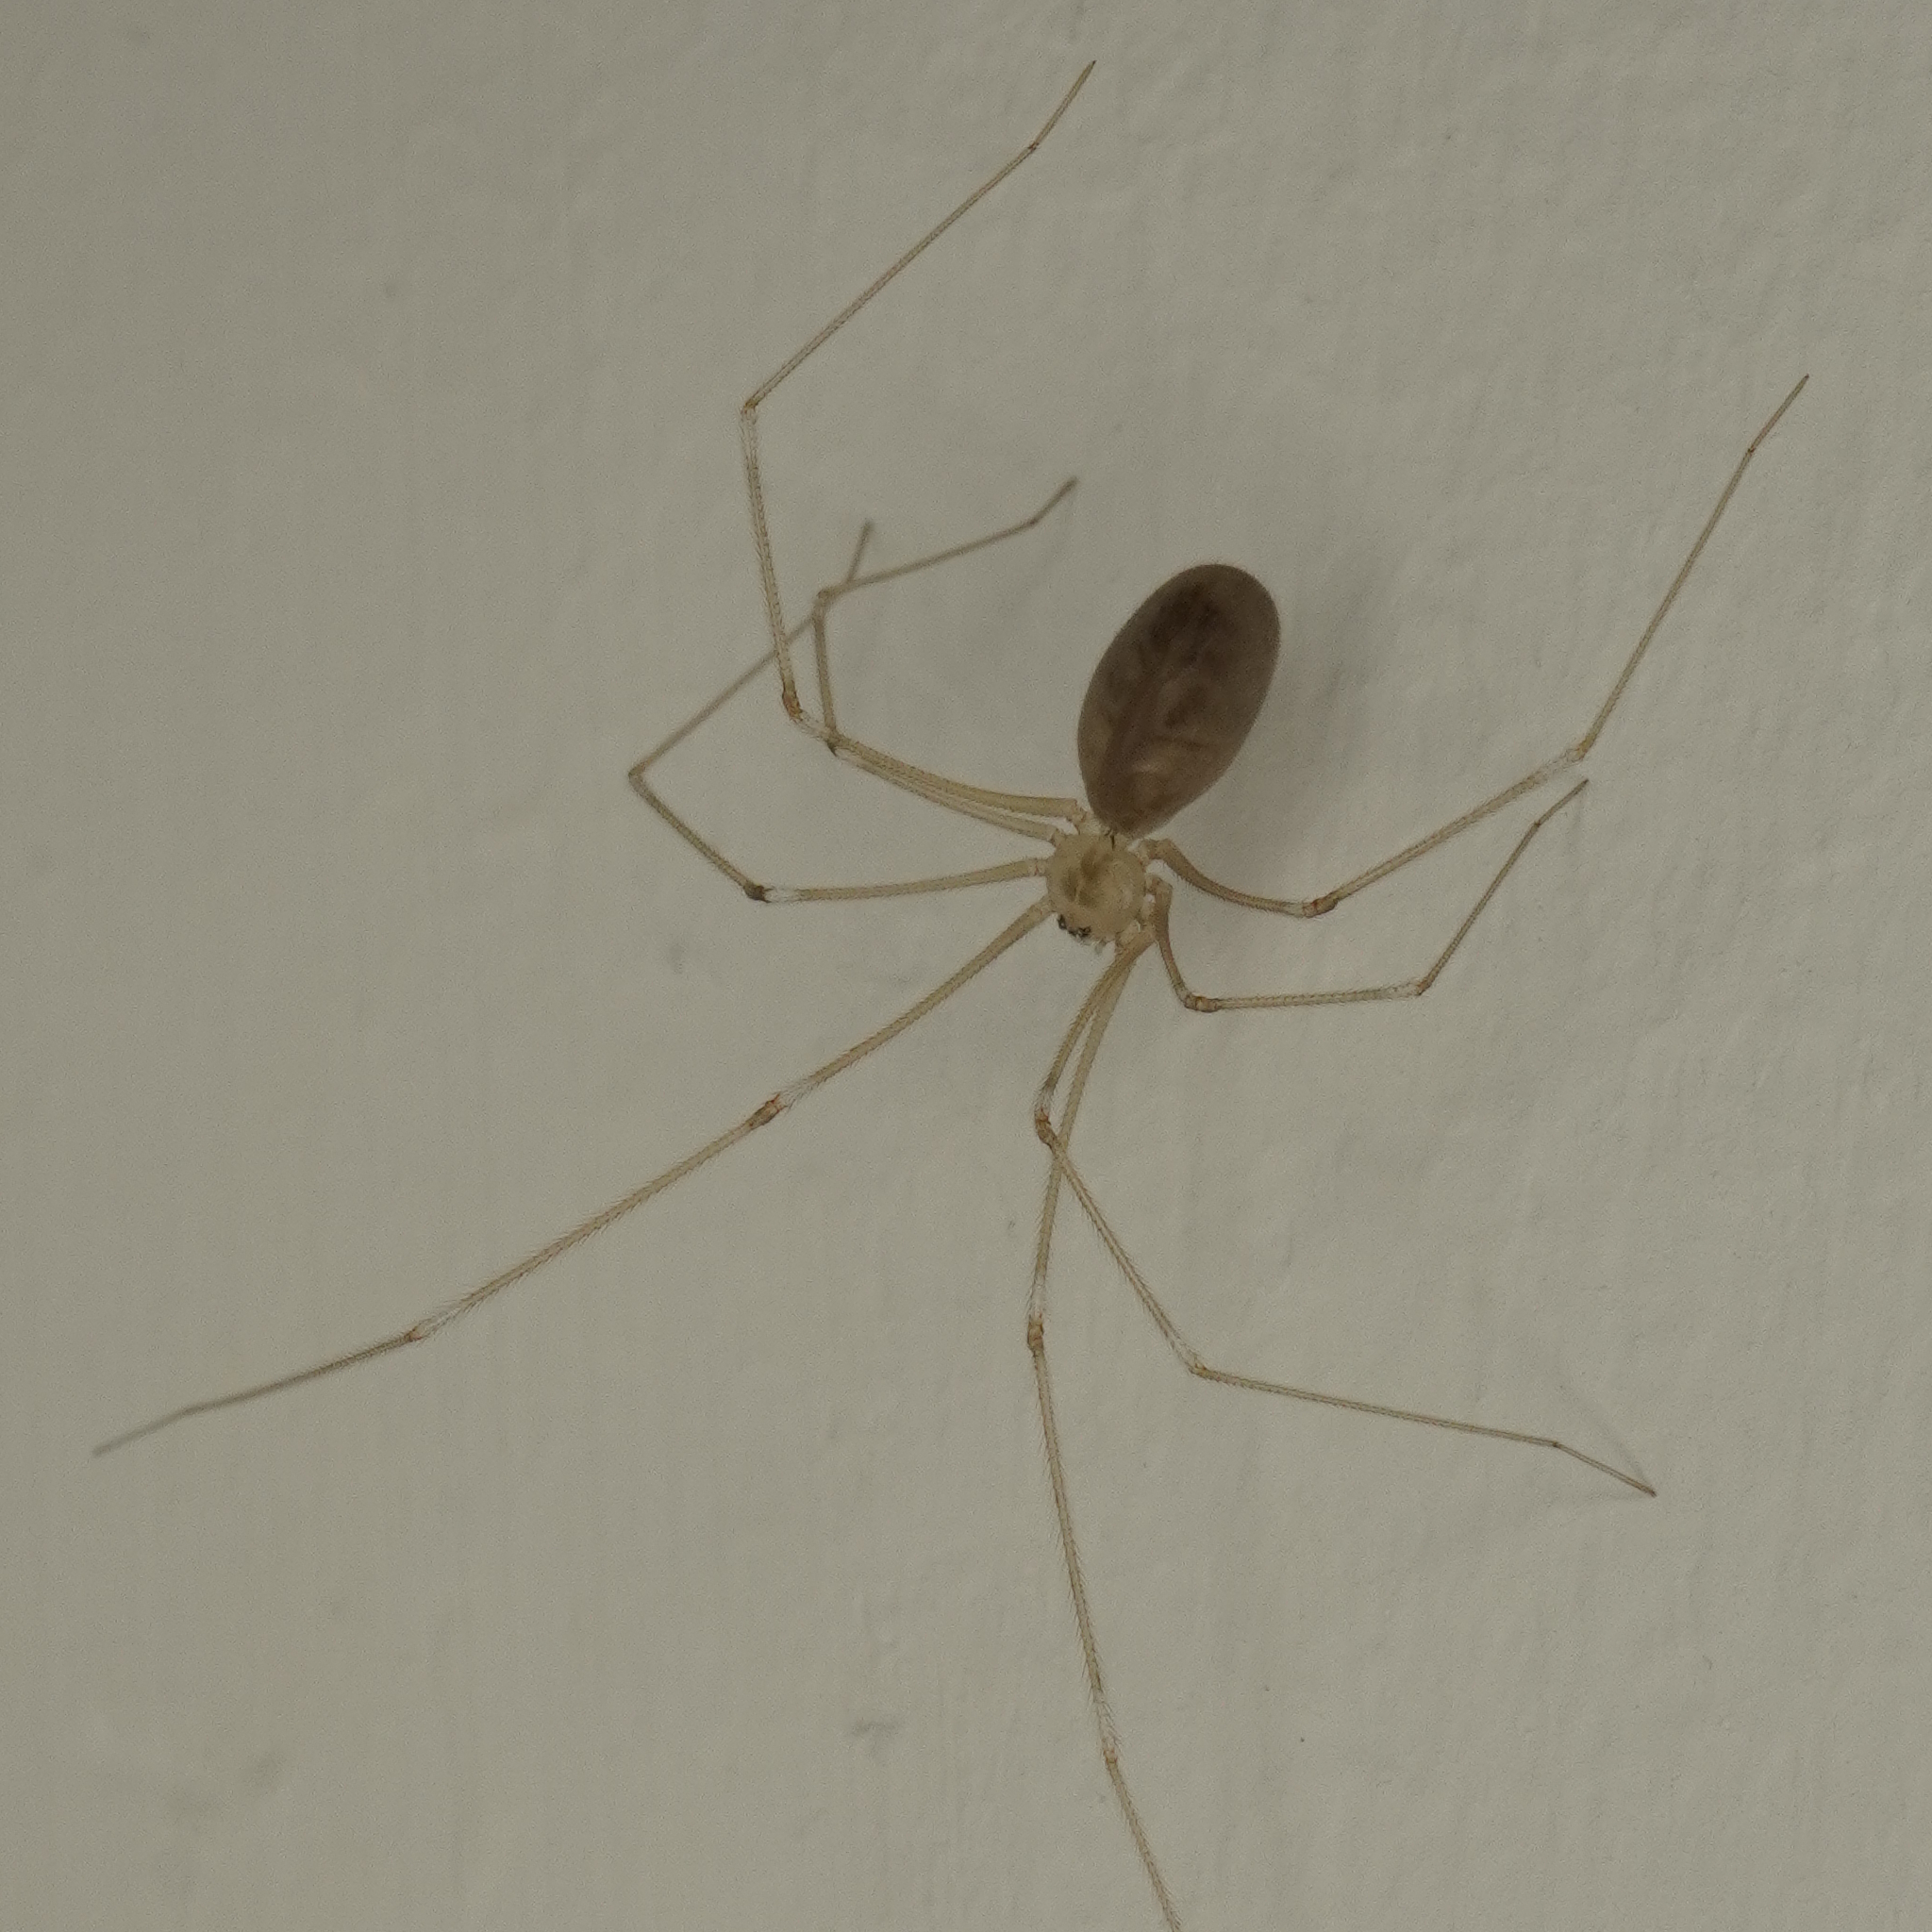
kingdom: Animalia
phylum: Arthropoda
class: Arachnida
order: Araneae
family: Pholcidae
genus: Pholcus
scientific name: Pholcus phalangioides
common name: Longbodied cellar spider
